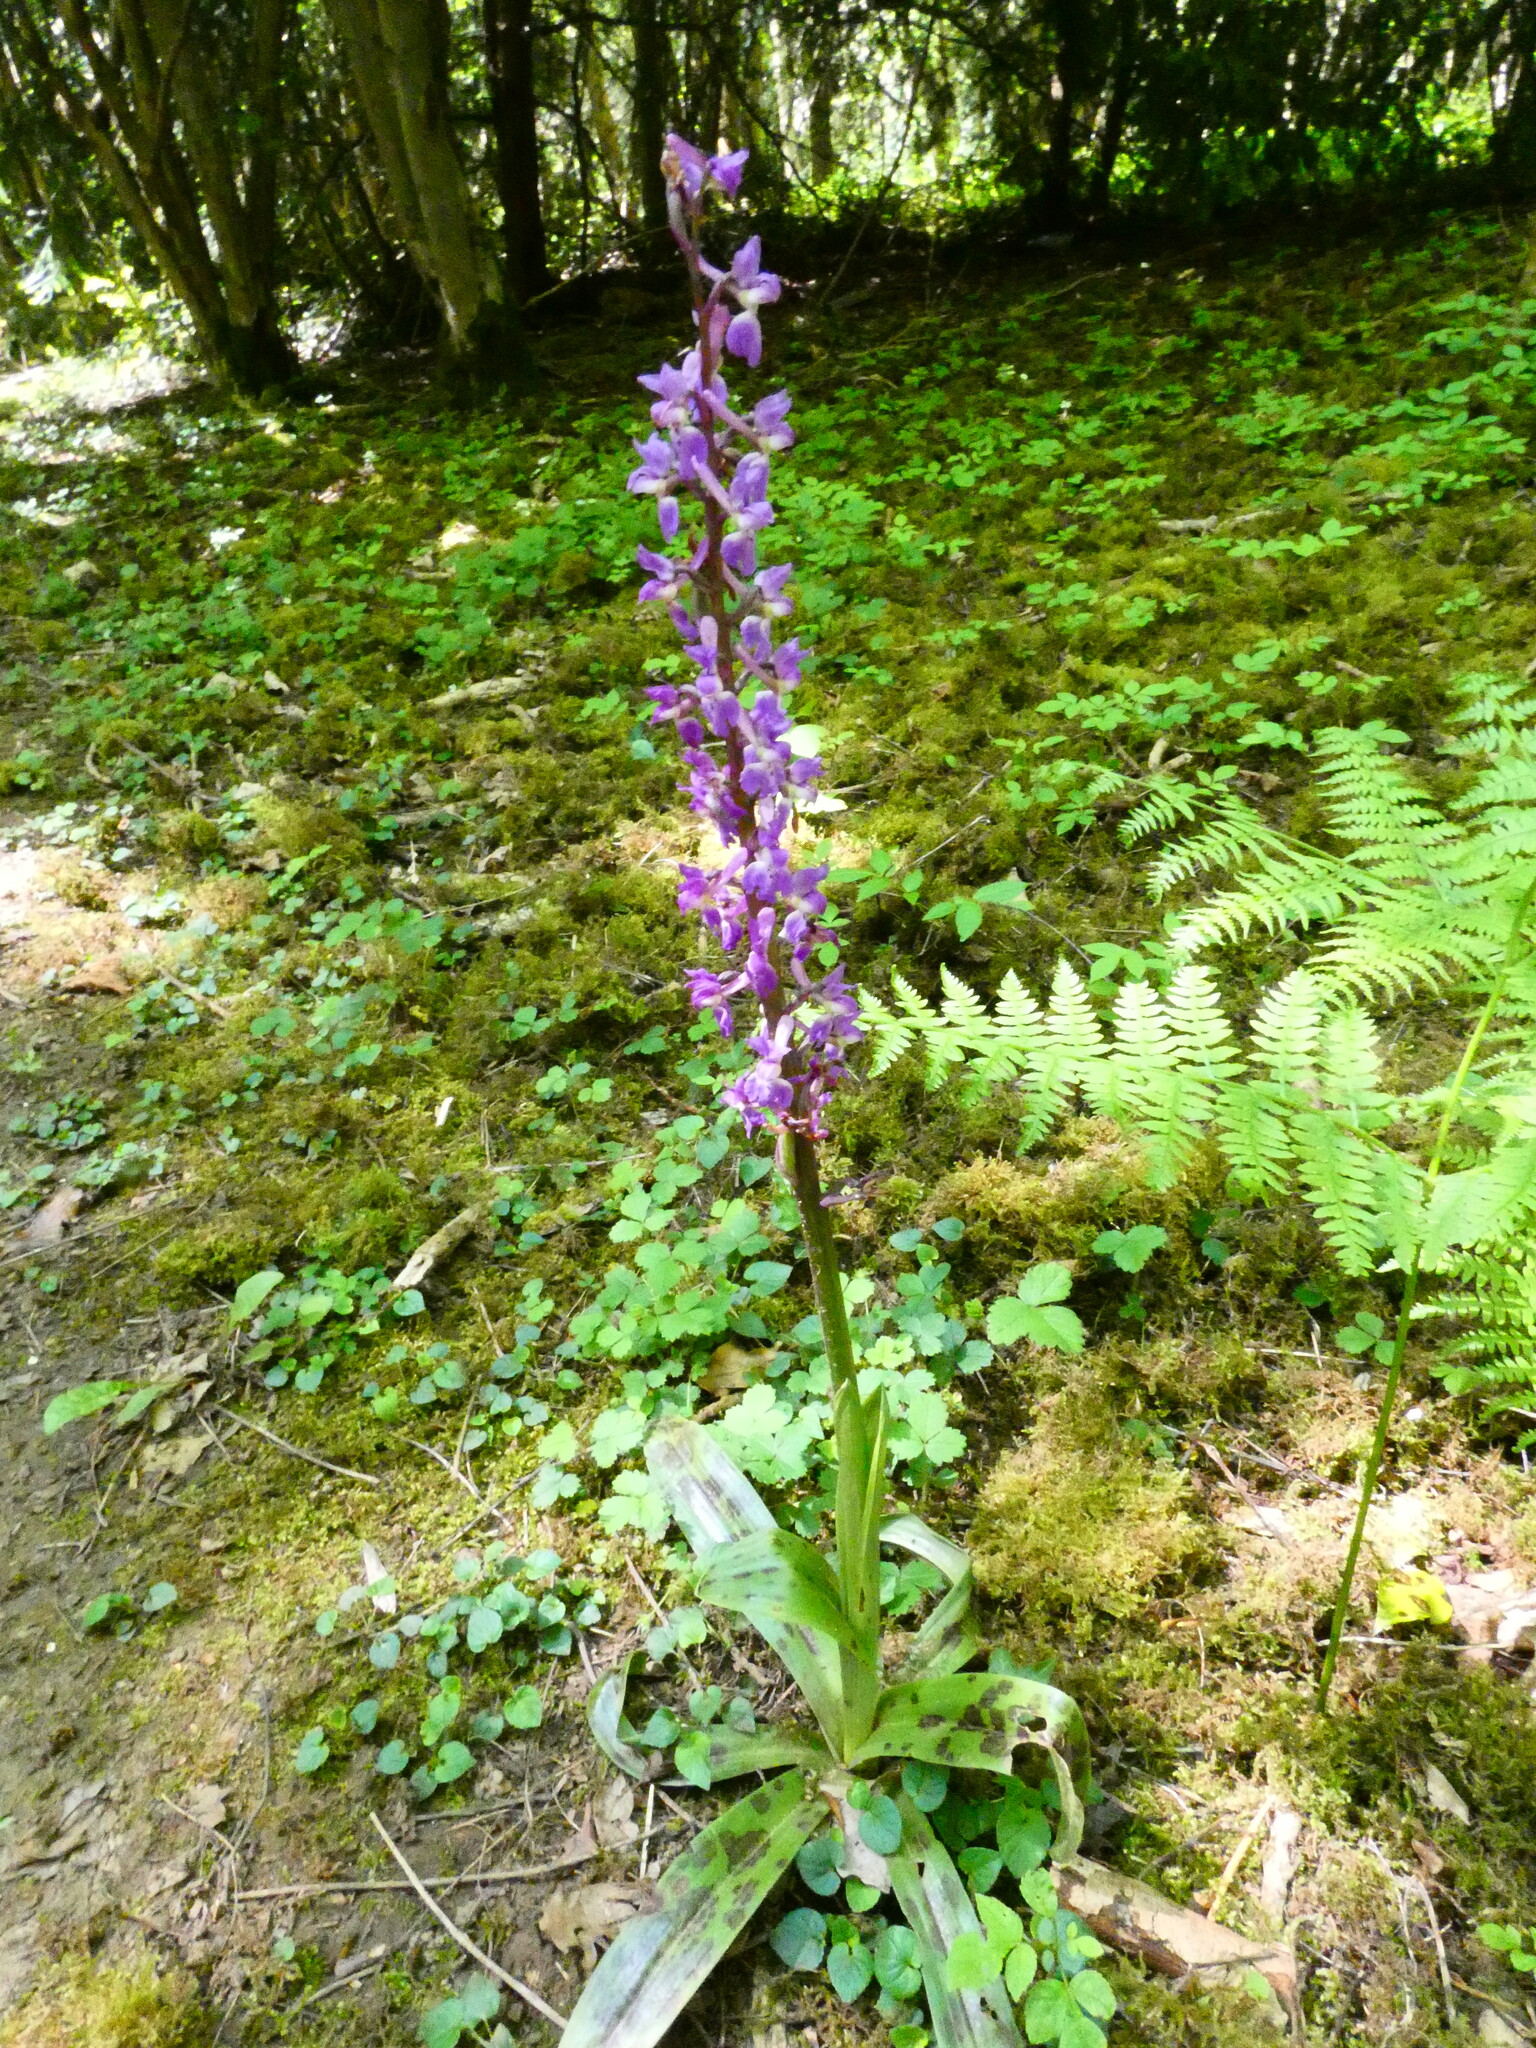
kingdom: Plantae
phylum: Tracheophyta
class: Liliopsida
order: Asparagales
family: Orchidaceae
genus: Orchis
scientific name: Orchis mascula
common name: Early-purple orchid
